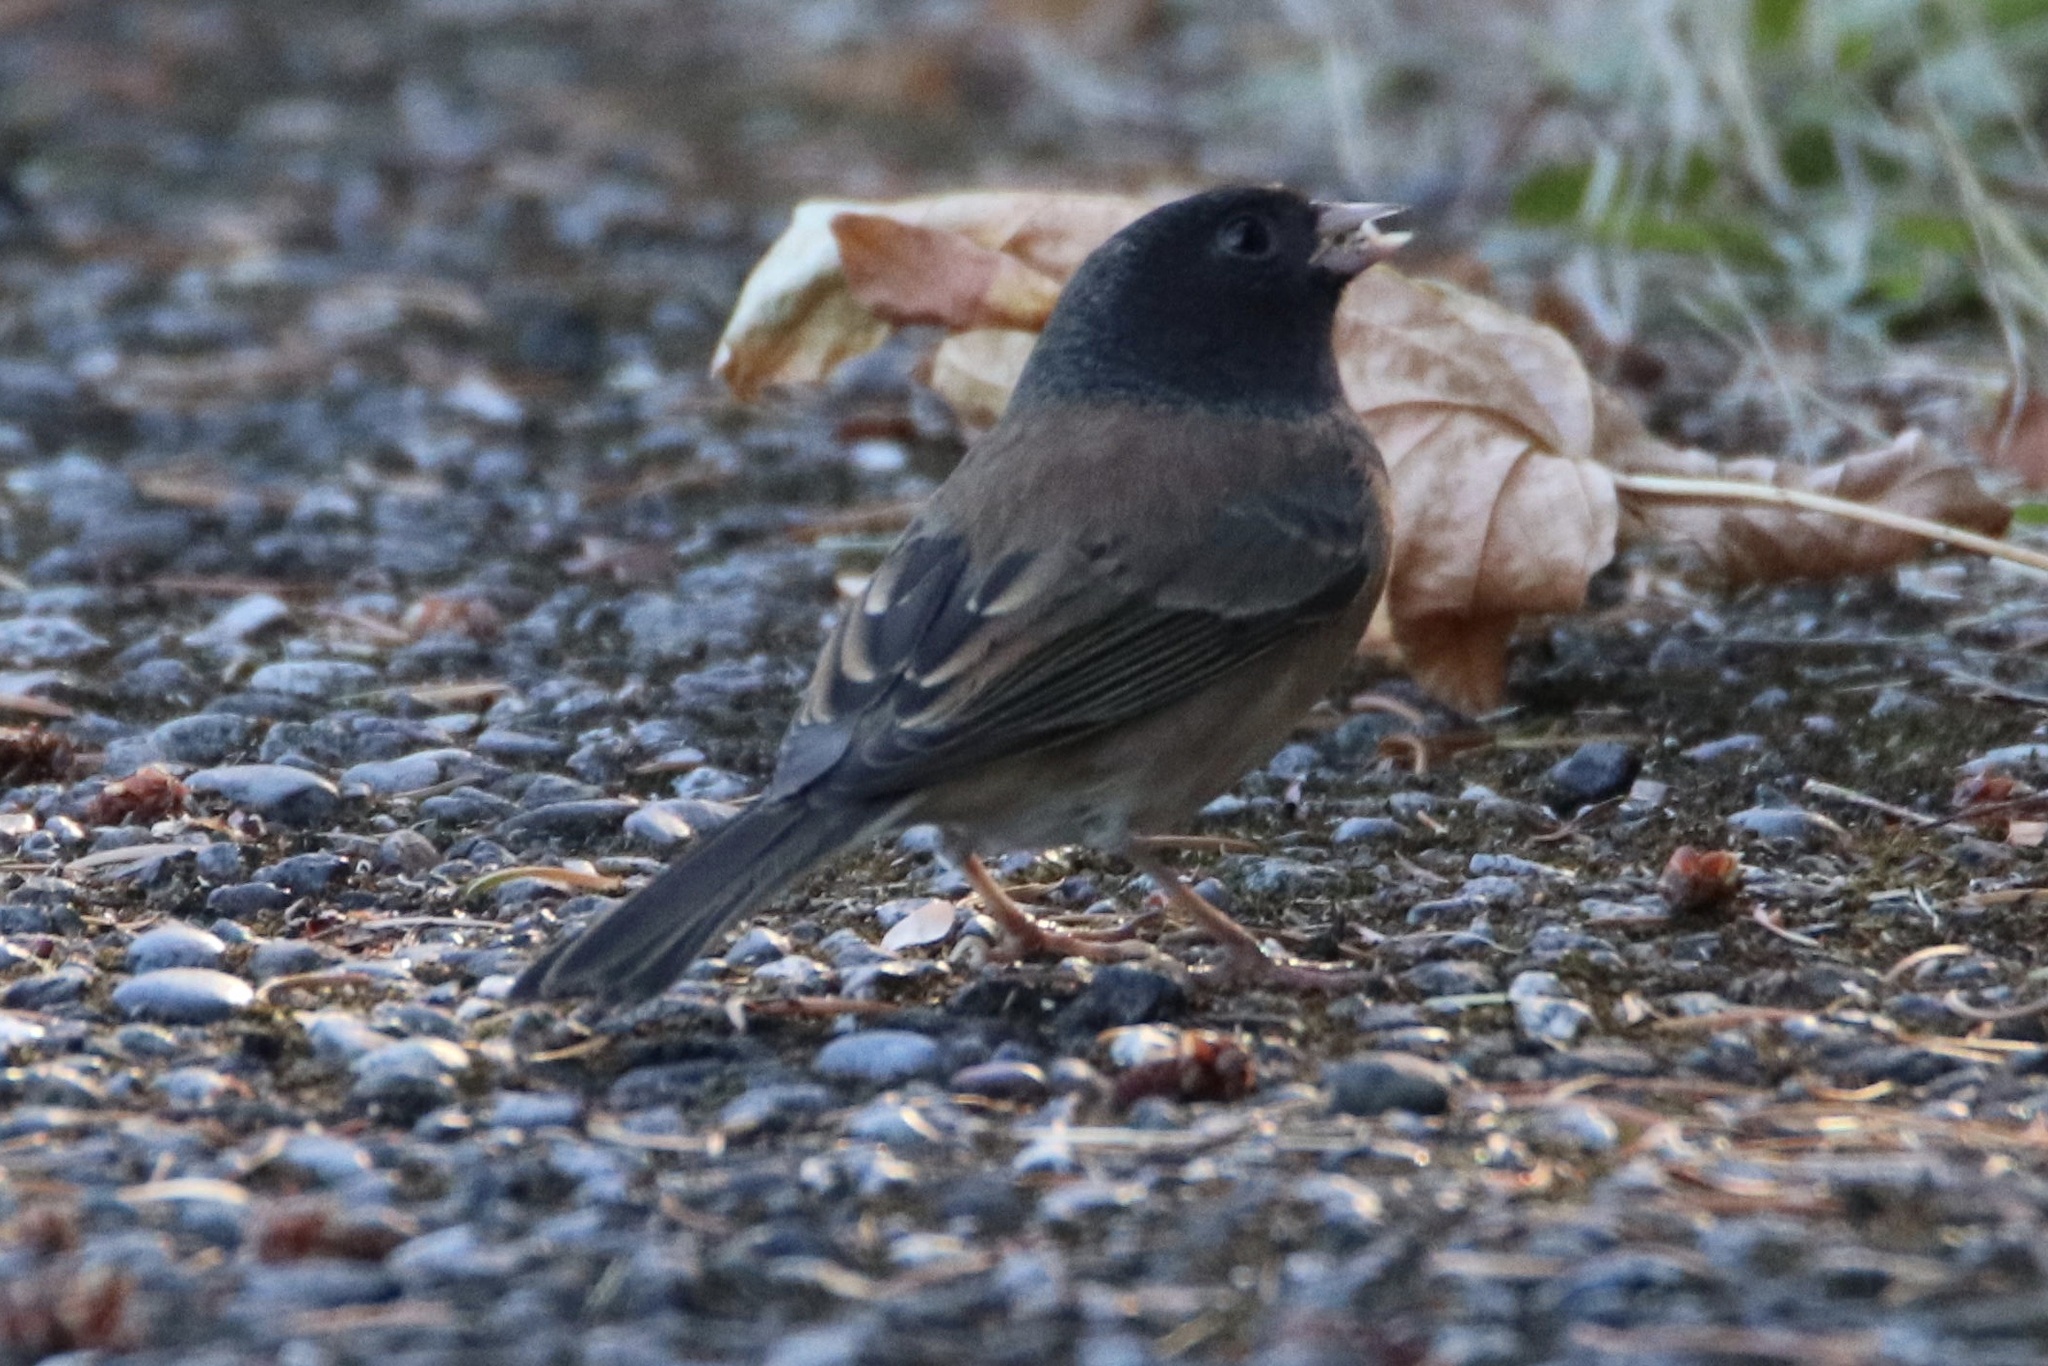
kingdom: Animalia
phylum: Chordata
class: Aves
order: Passeriformes
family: Passerellidae
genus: Junco
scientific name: Junco hyemalis
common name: Dark-eyed junco
